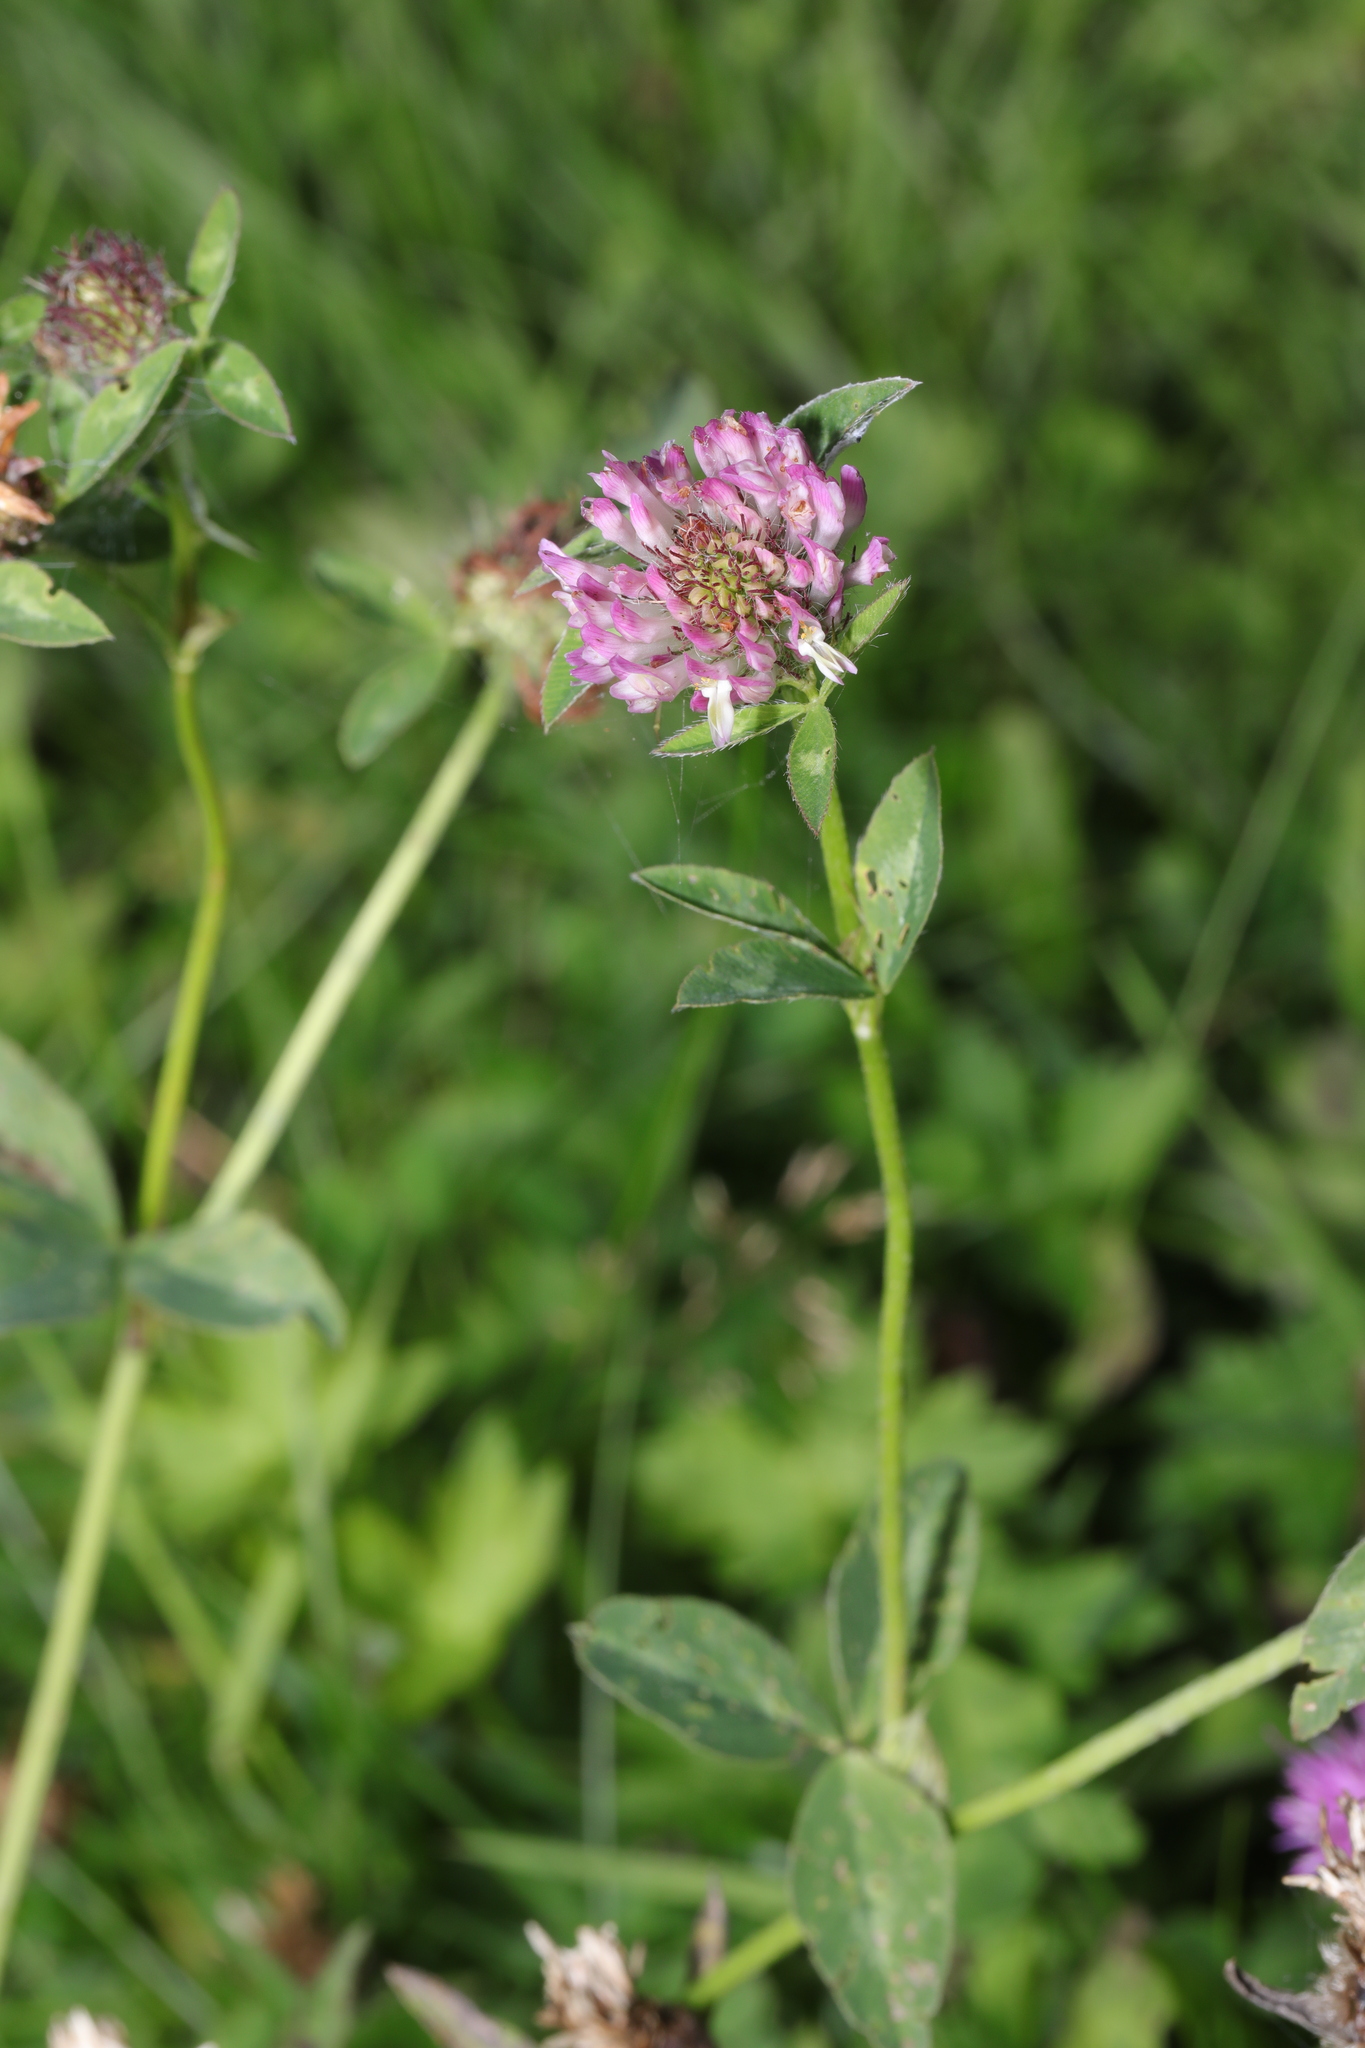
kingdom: Plantae
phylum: Tracheophyta
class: Magnoliopsida
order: Fabales
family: Fabaceae
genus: Trifolium
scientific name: Trifolium pratense
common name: Red clover
